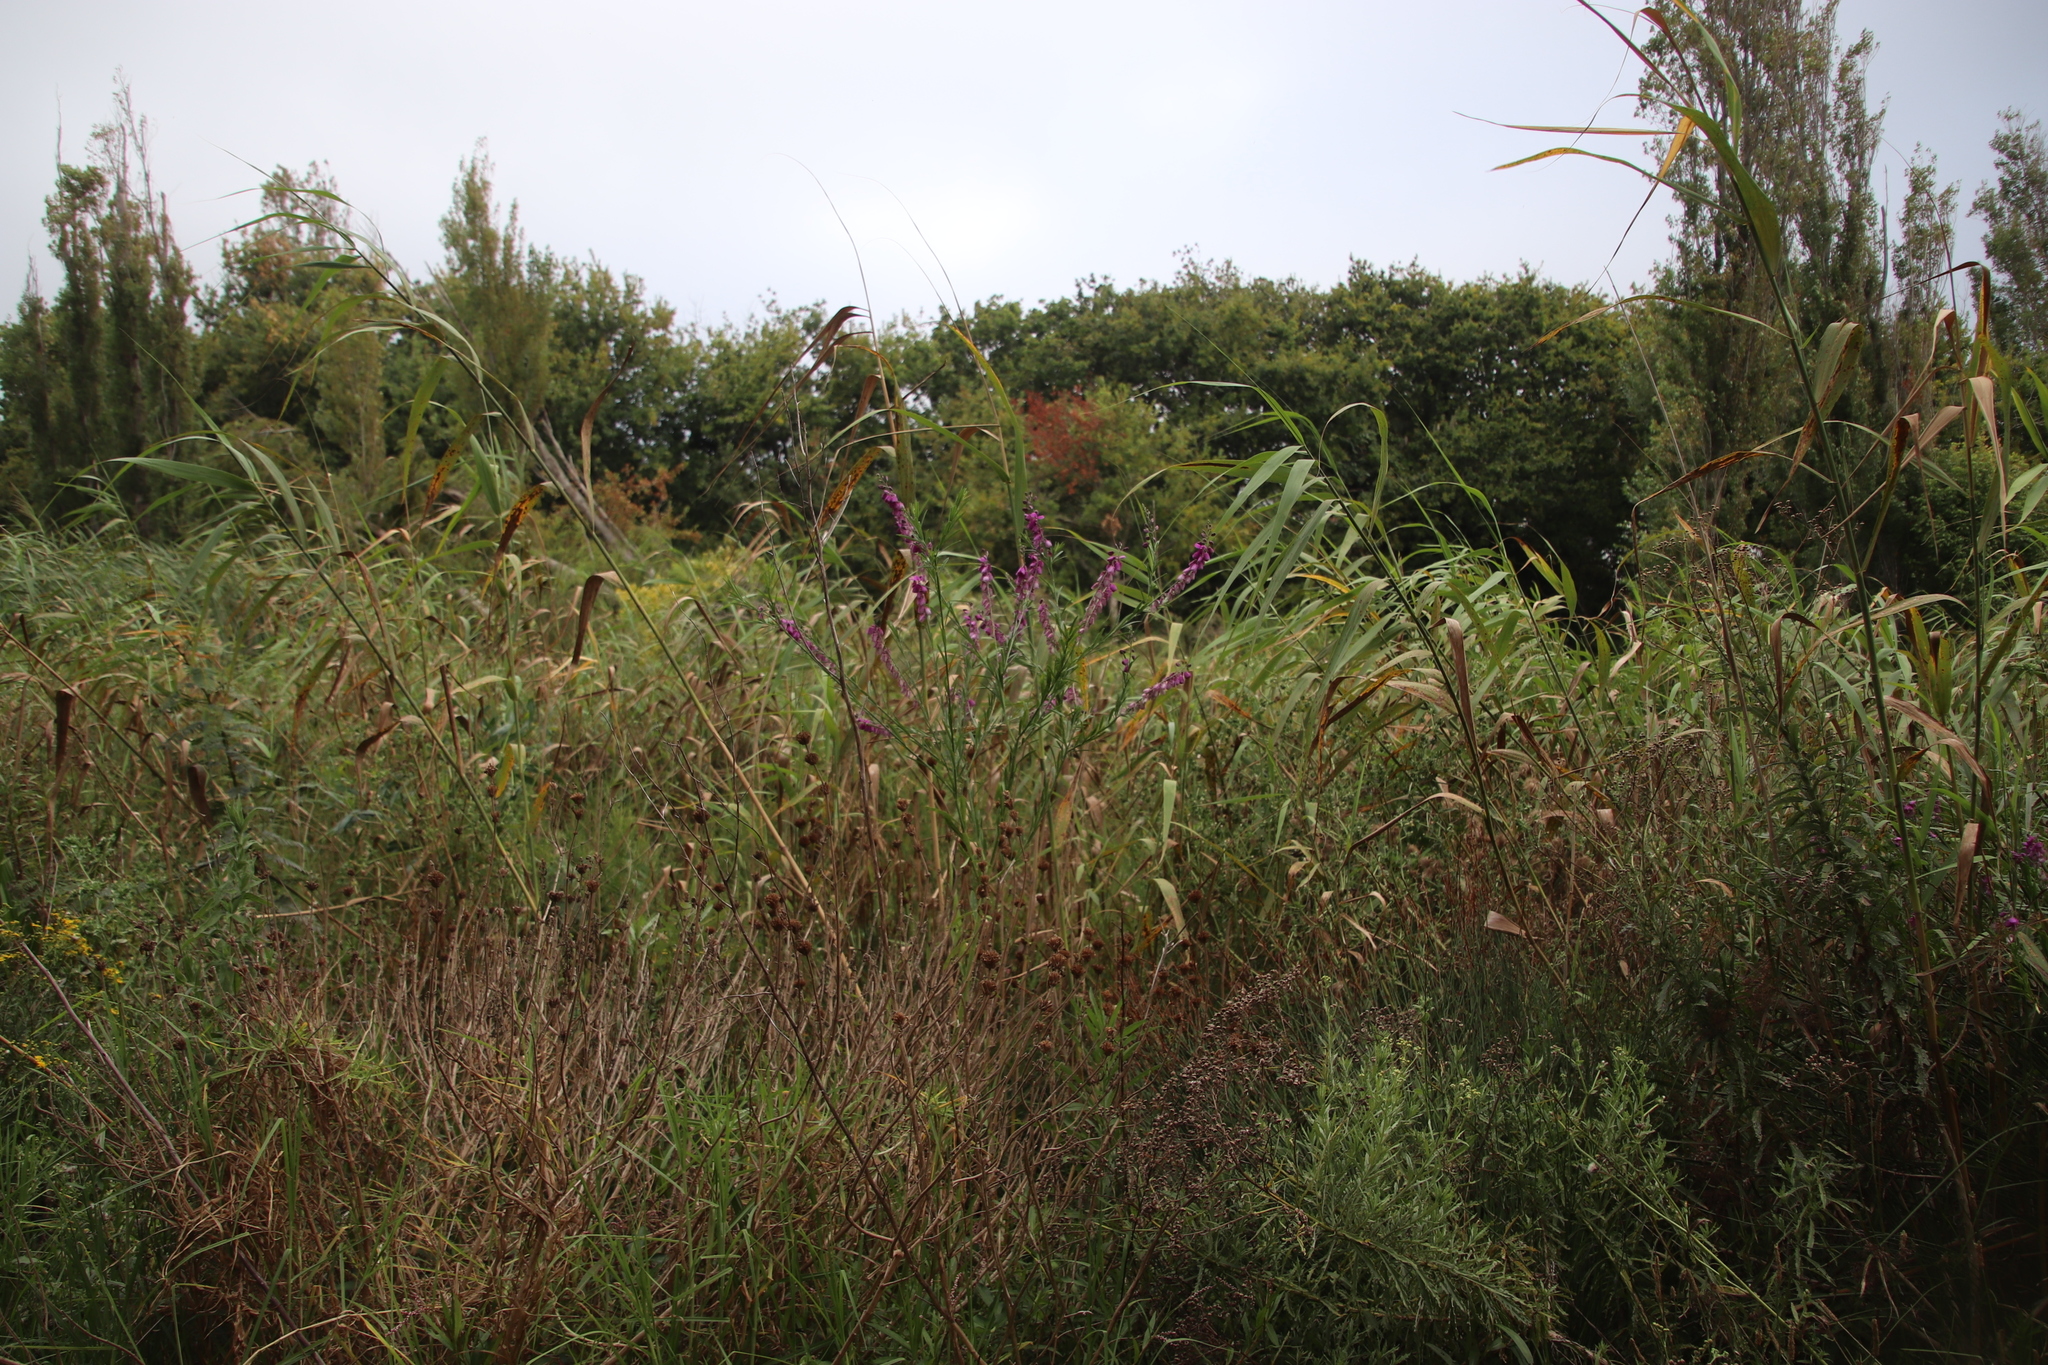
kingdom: Plantae
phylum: Tracheophyta
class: Magnoliopsida
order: Fabales
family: Polygalaceae
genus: Polygala
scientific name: Polygala virgata
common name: Milkwort
